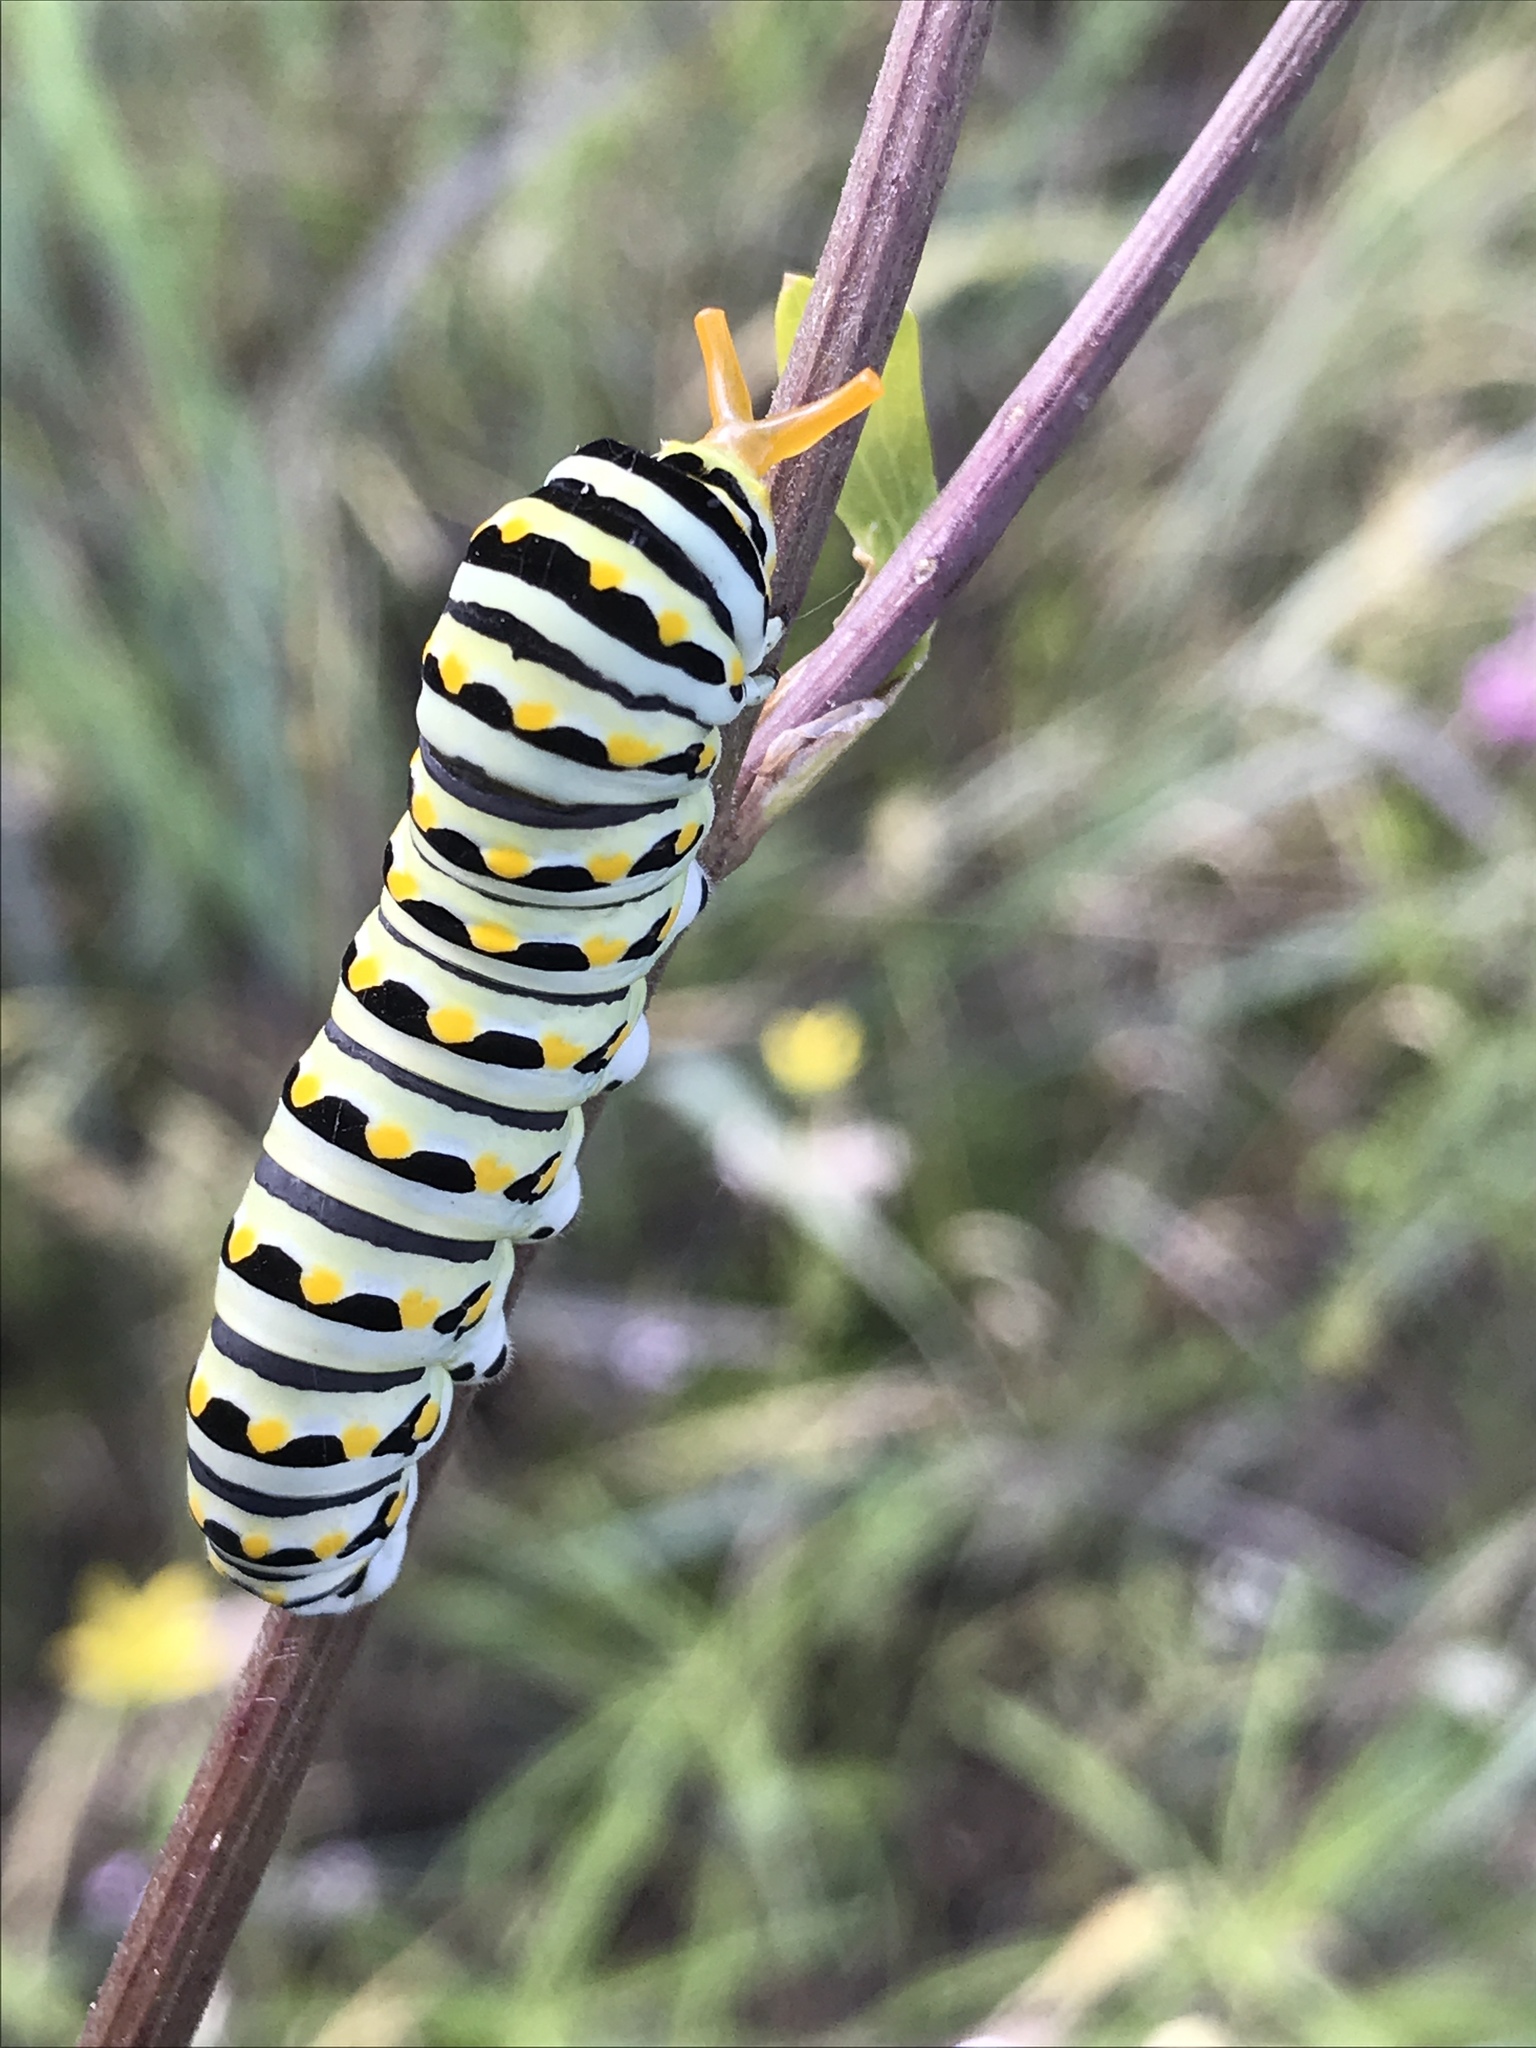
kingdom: Animalia
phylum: Arthropoda
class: Insecta
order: Lepidoptera
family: Papilionidae
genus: Papilio
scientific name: Papilio polyxenes
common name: Black swallowtail
